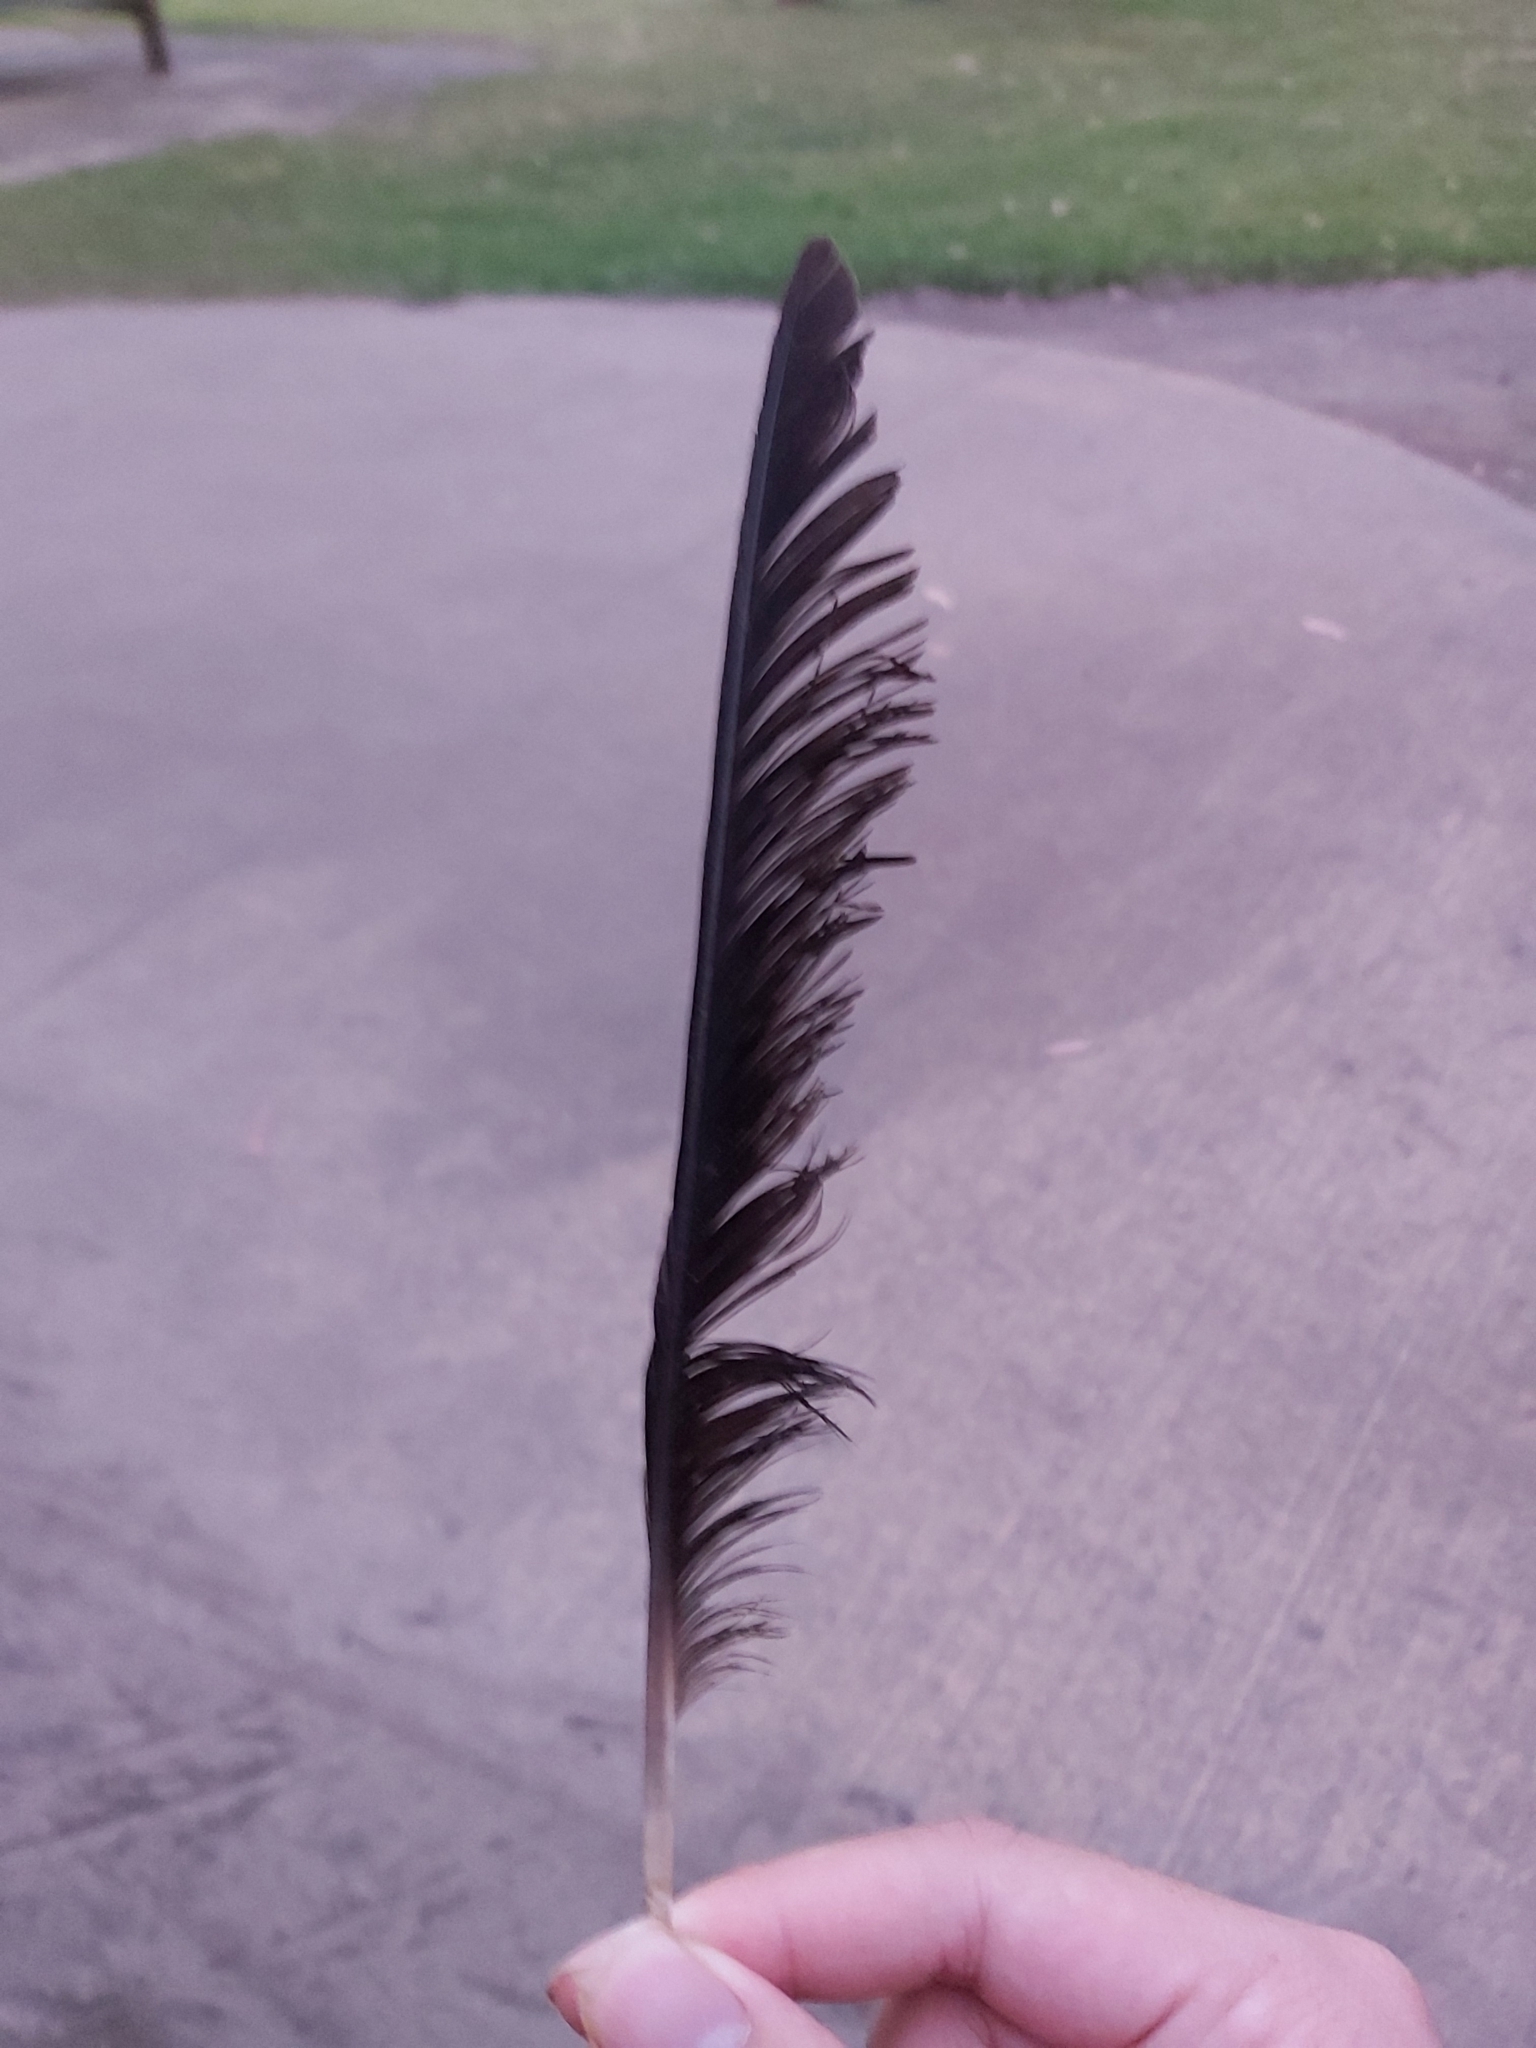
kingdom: Animalia
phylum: Chordata
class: Aves
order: Passeriformes
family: Cracticidae
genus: Gymnorhina
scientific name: Gymnorhina tibicen
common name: Australian magpie
